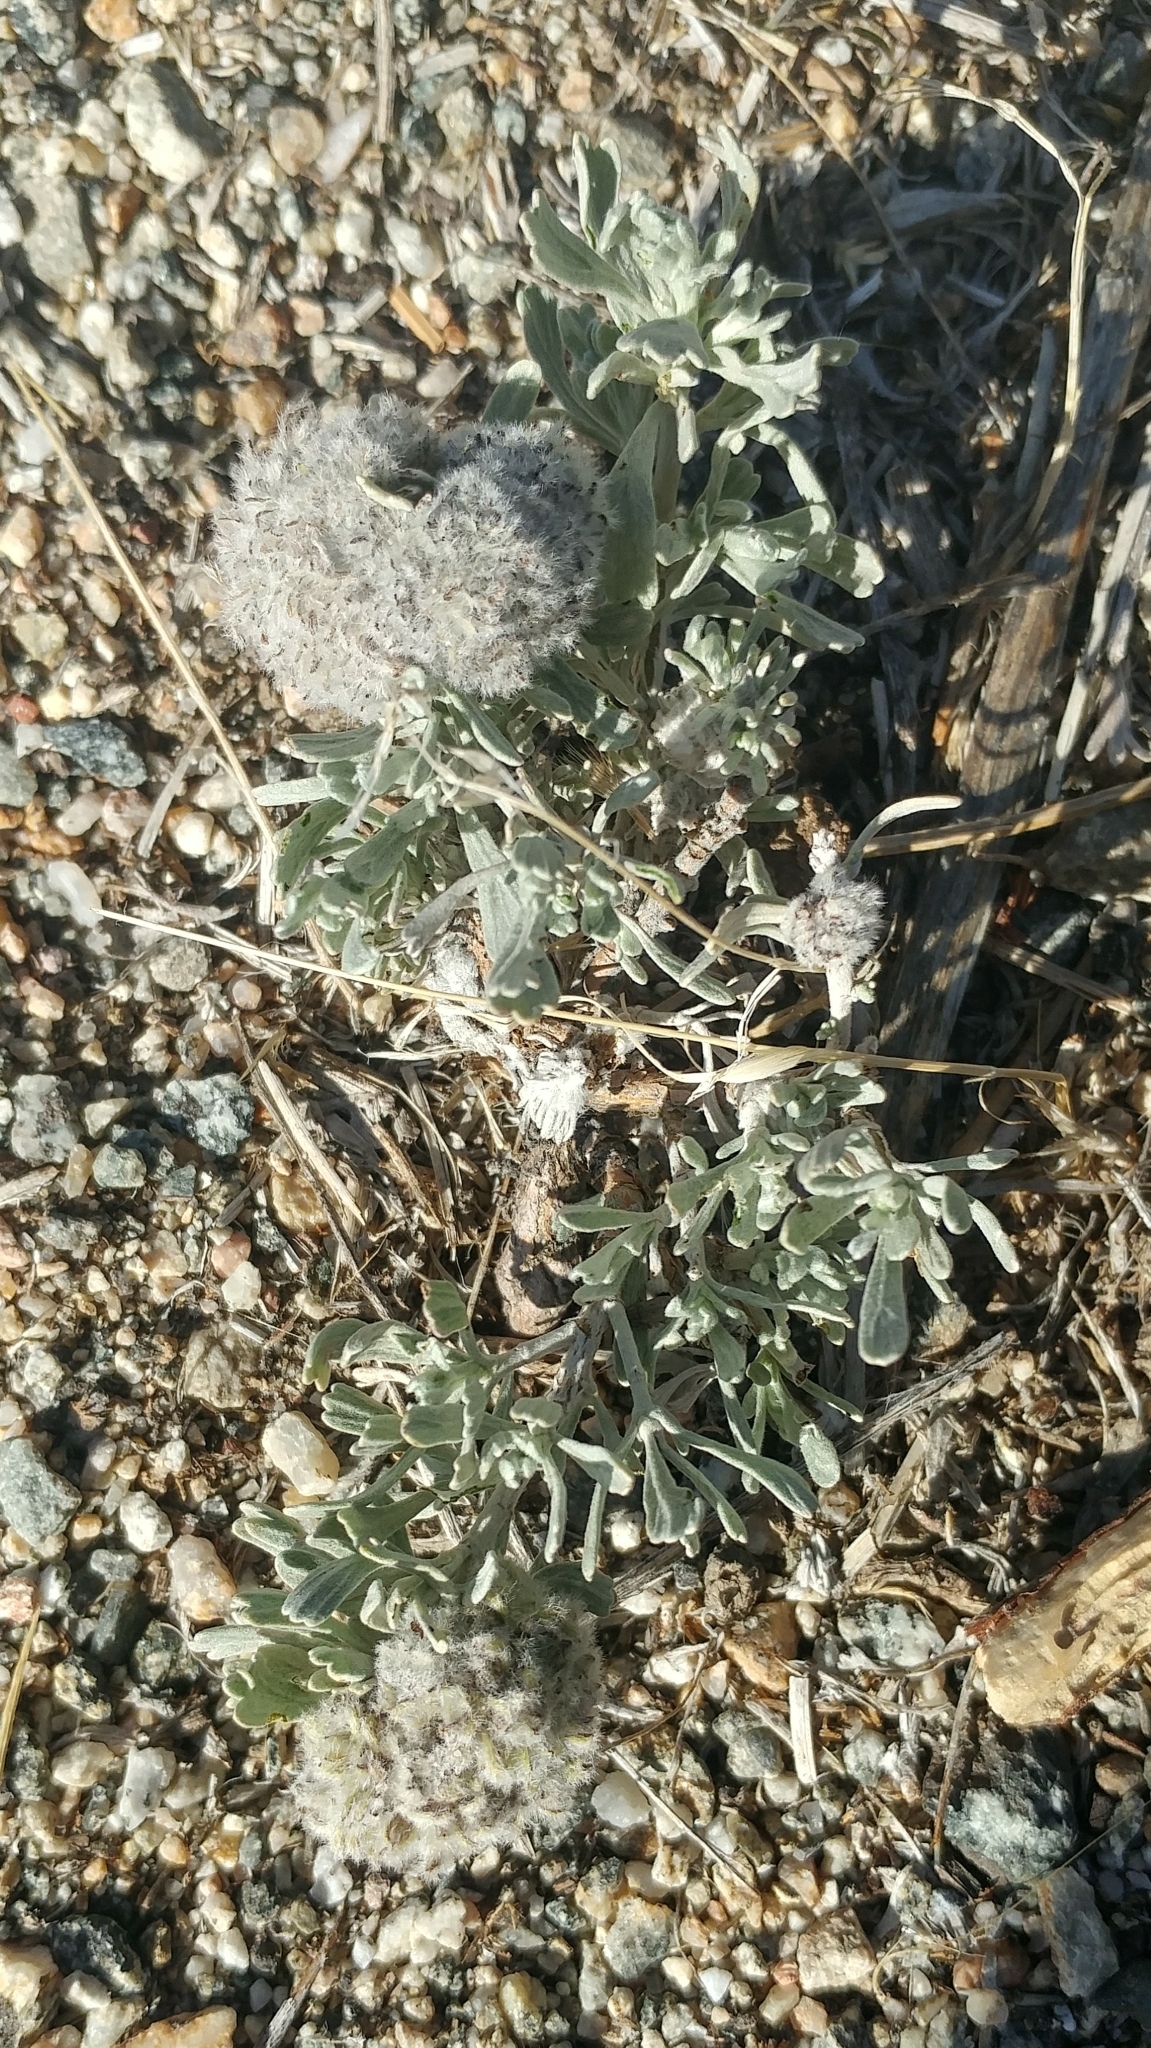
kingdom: Plantae
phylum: Tracheophyta
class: Magnoliopsida
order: Asterales
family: Asteraceae
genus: Artemisia
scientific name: Artemisia tridentata
